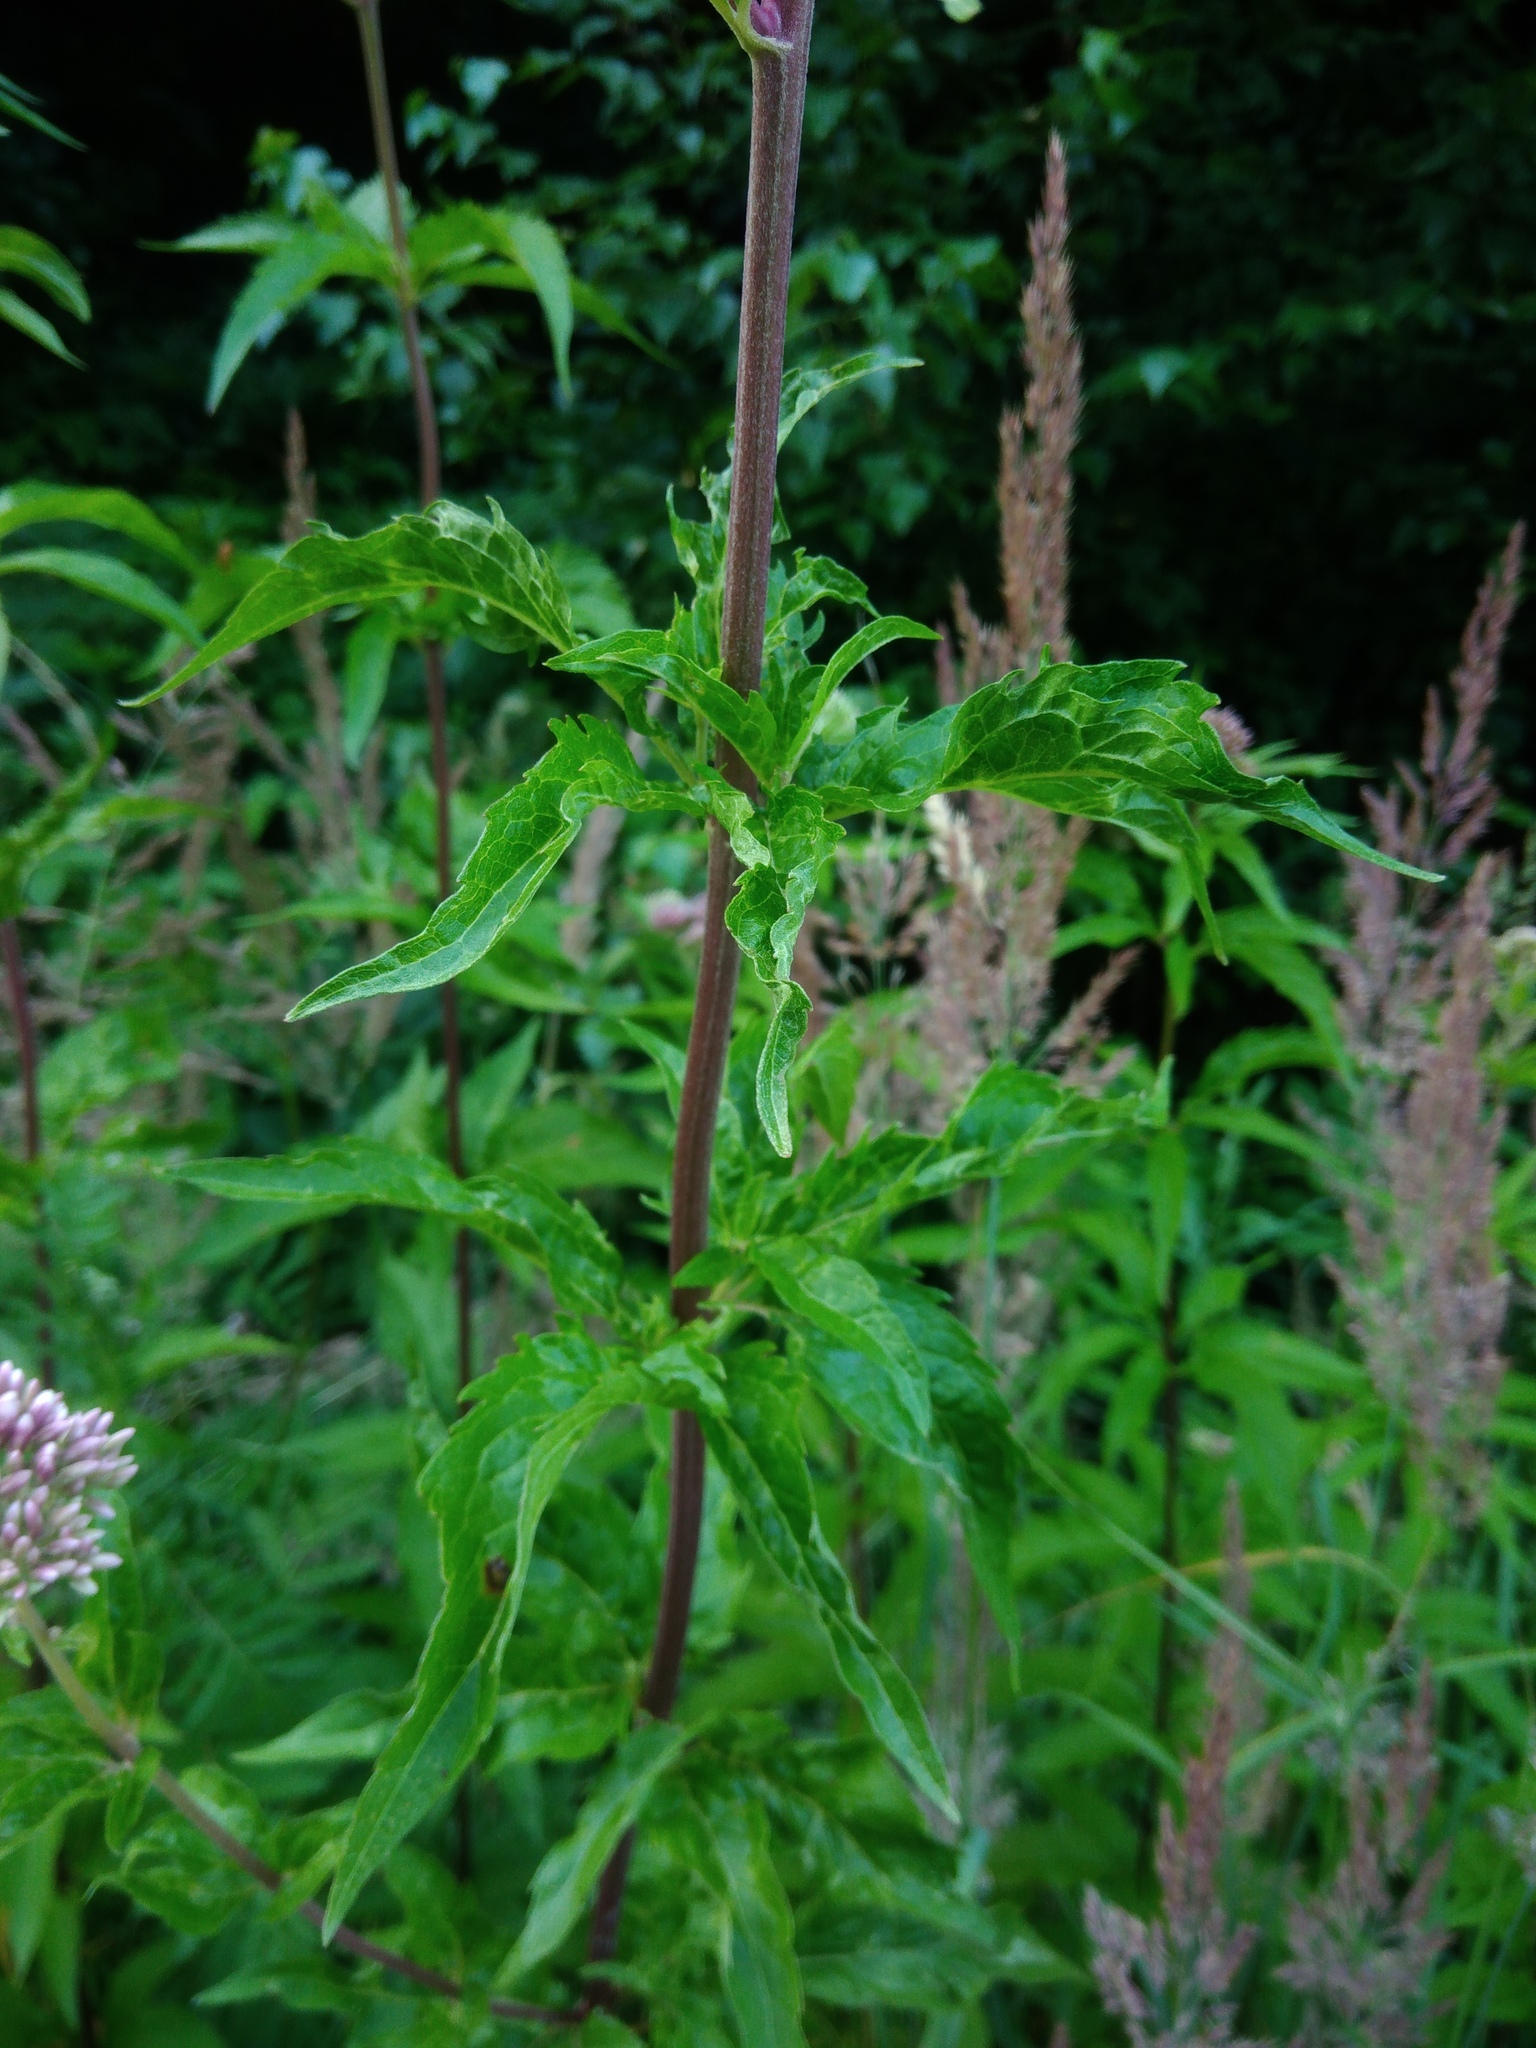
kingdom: Plantae
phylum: Tracheophyta
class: Magnoliopsida
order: Asterales
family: Asteraceae
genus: Eupatorium
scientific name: Eupatorium cannabinum
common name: Hemp-agrimony
